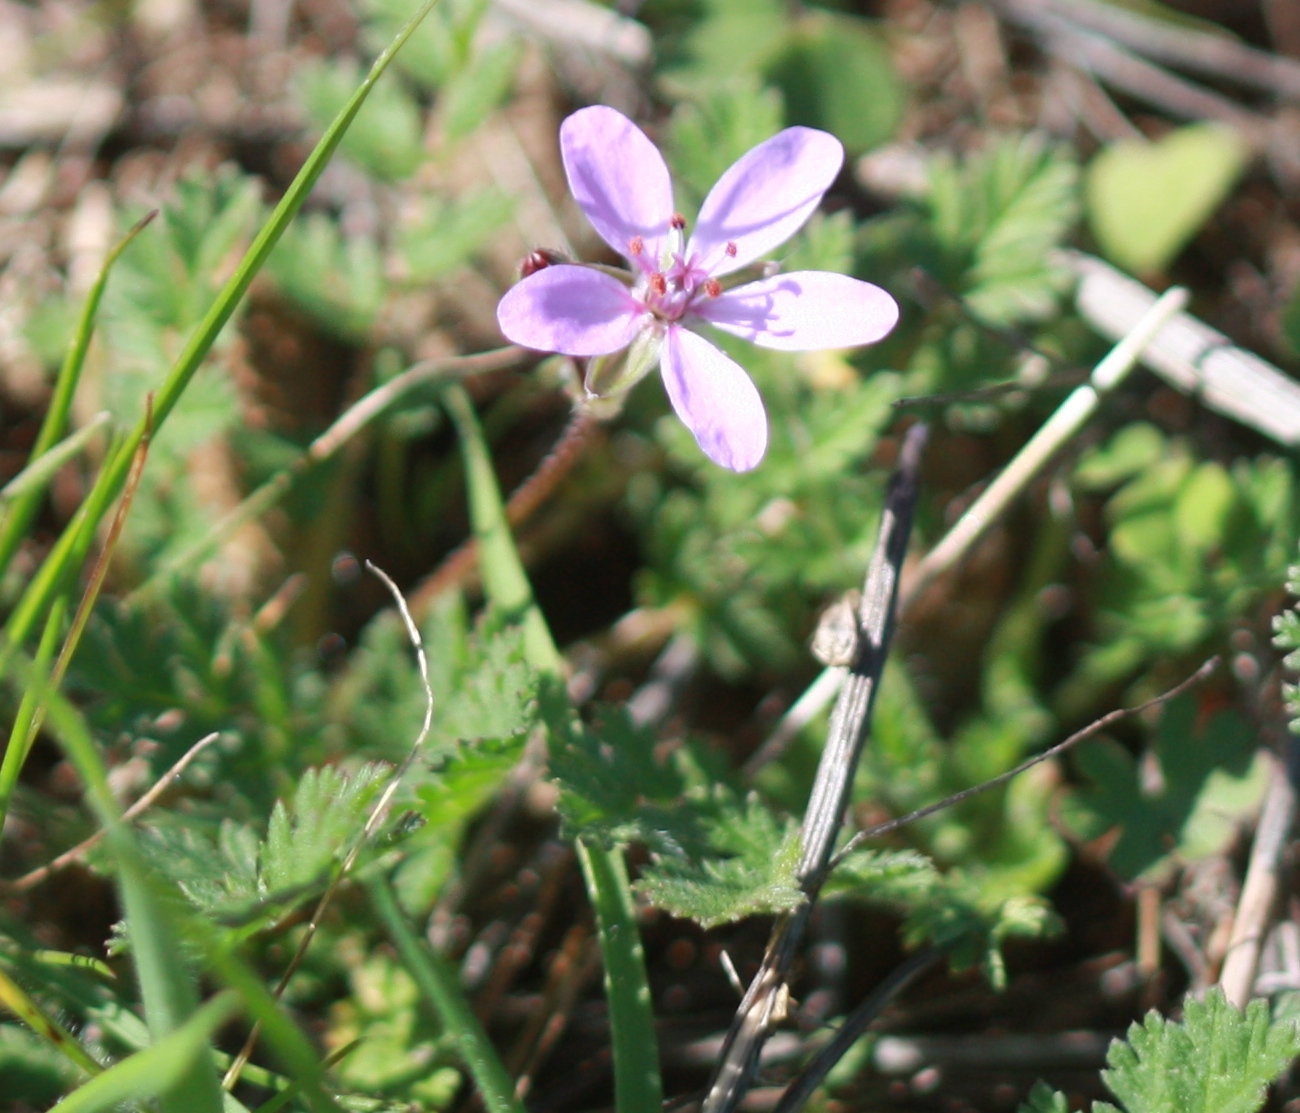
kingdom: Plantae
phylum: Tracheophyta
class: Magnoliopsida
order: Geraniales
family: Geraniaceae
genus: Erodium
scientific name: Erodium cicutarium
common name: Common stork's-bill
